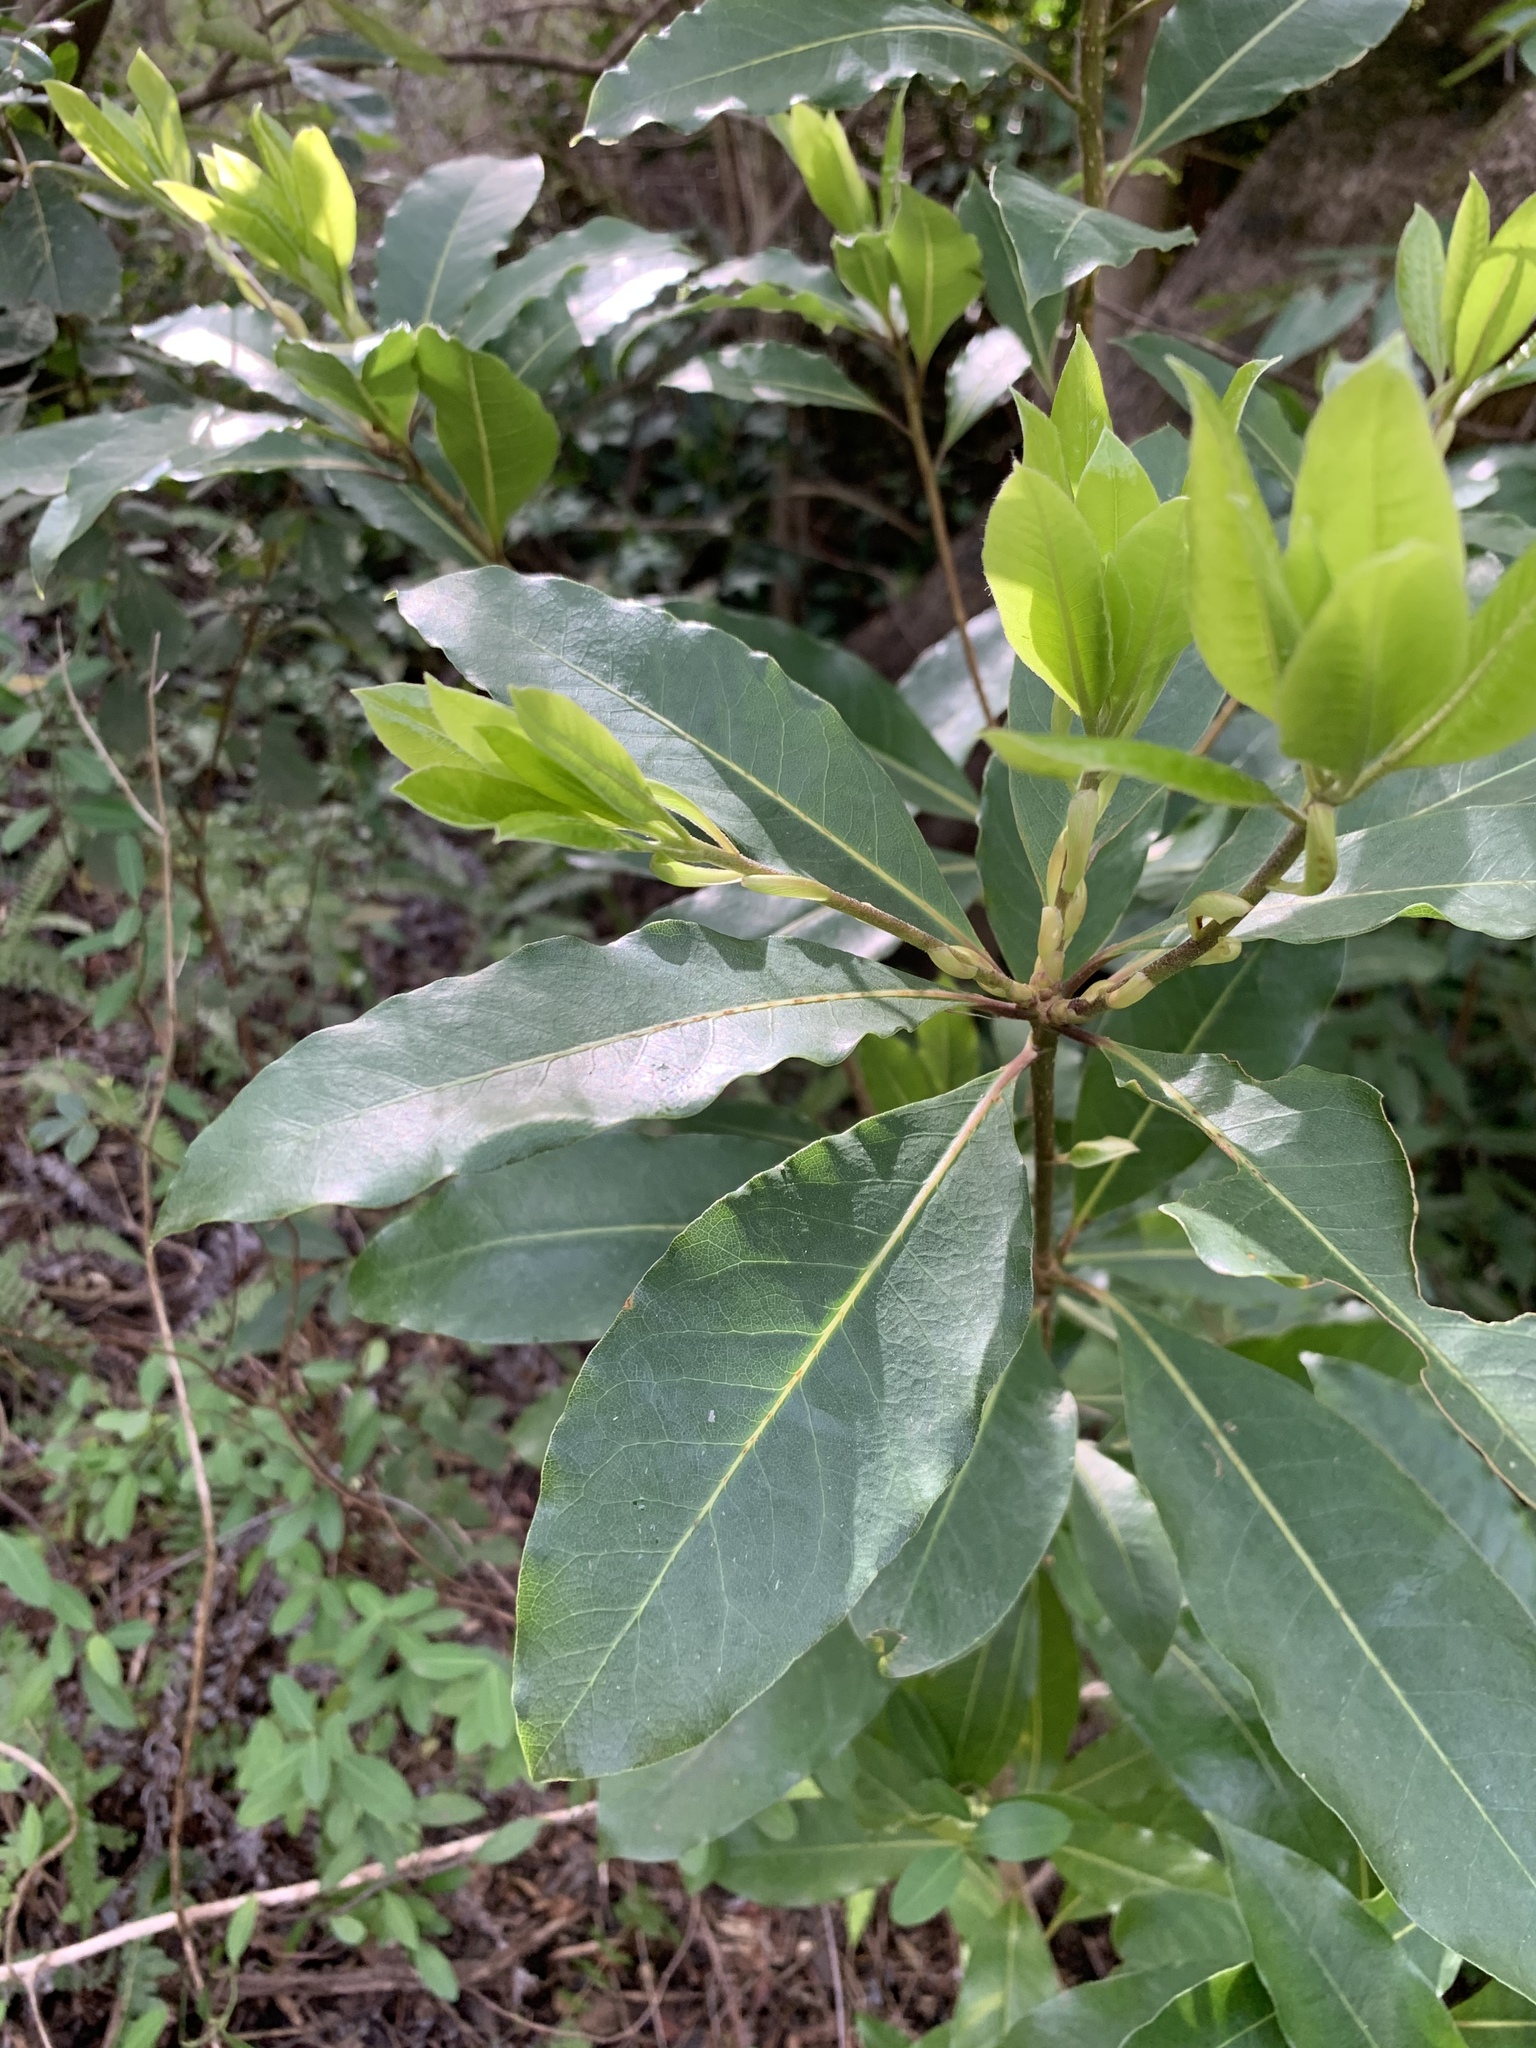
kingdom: Plantae
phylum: Tracheophyta
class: Magnoliopsida
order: Apiales
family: Pittosporaceae
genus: Pittosporum
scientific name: Pittosporum undulatum
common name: Australian cheesewood
